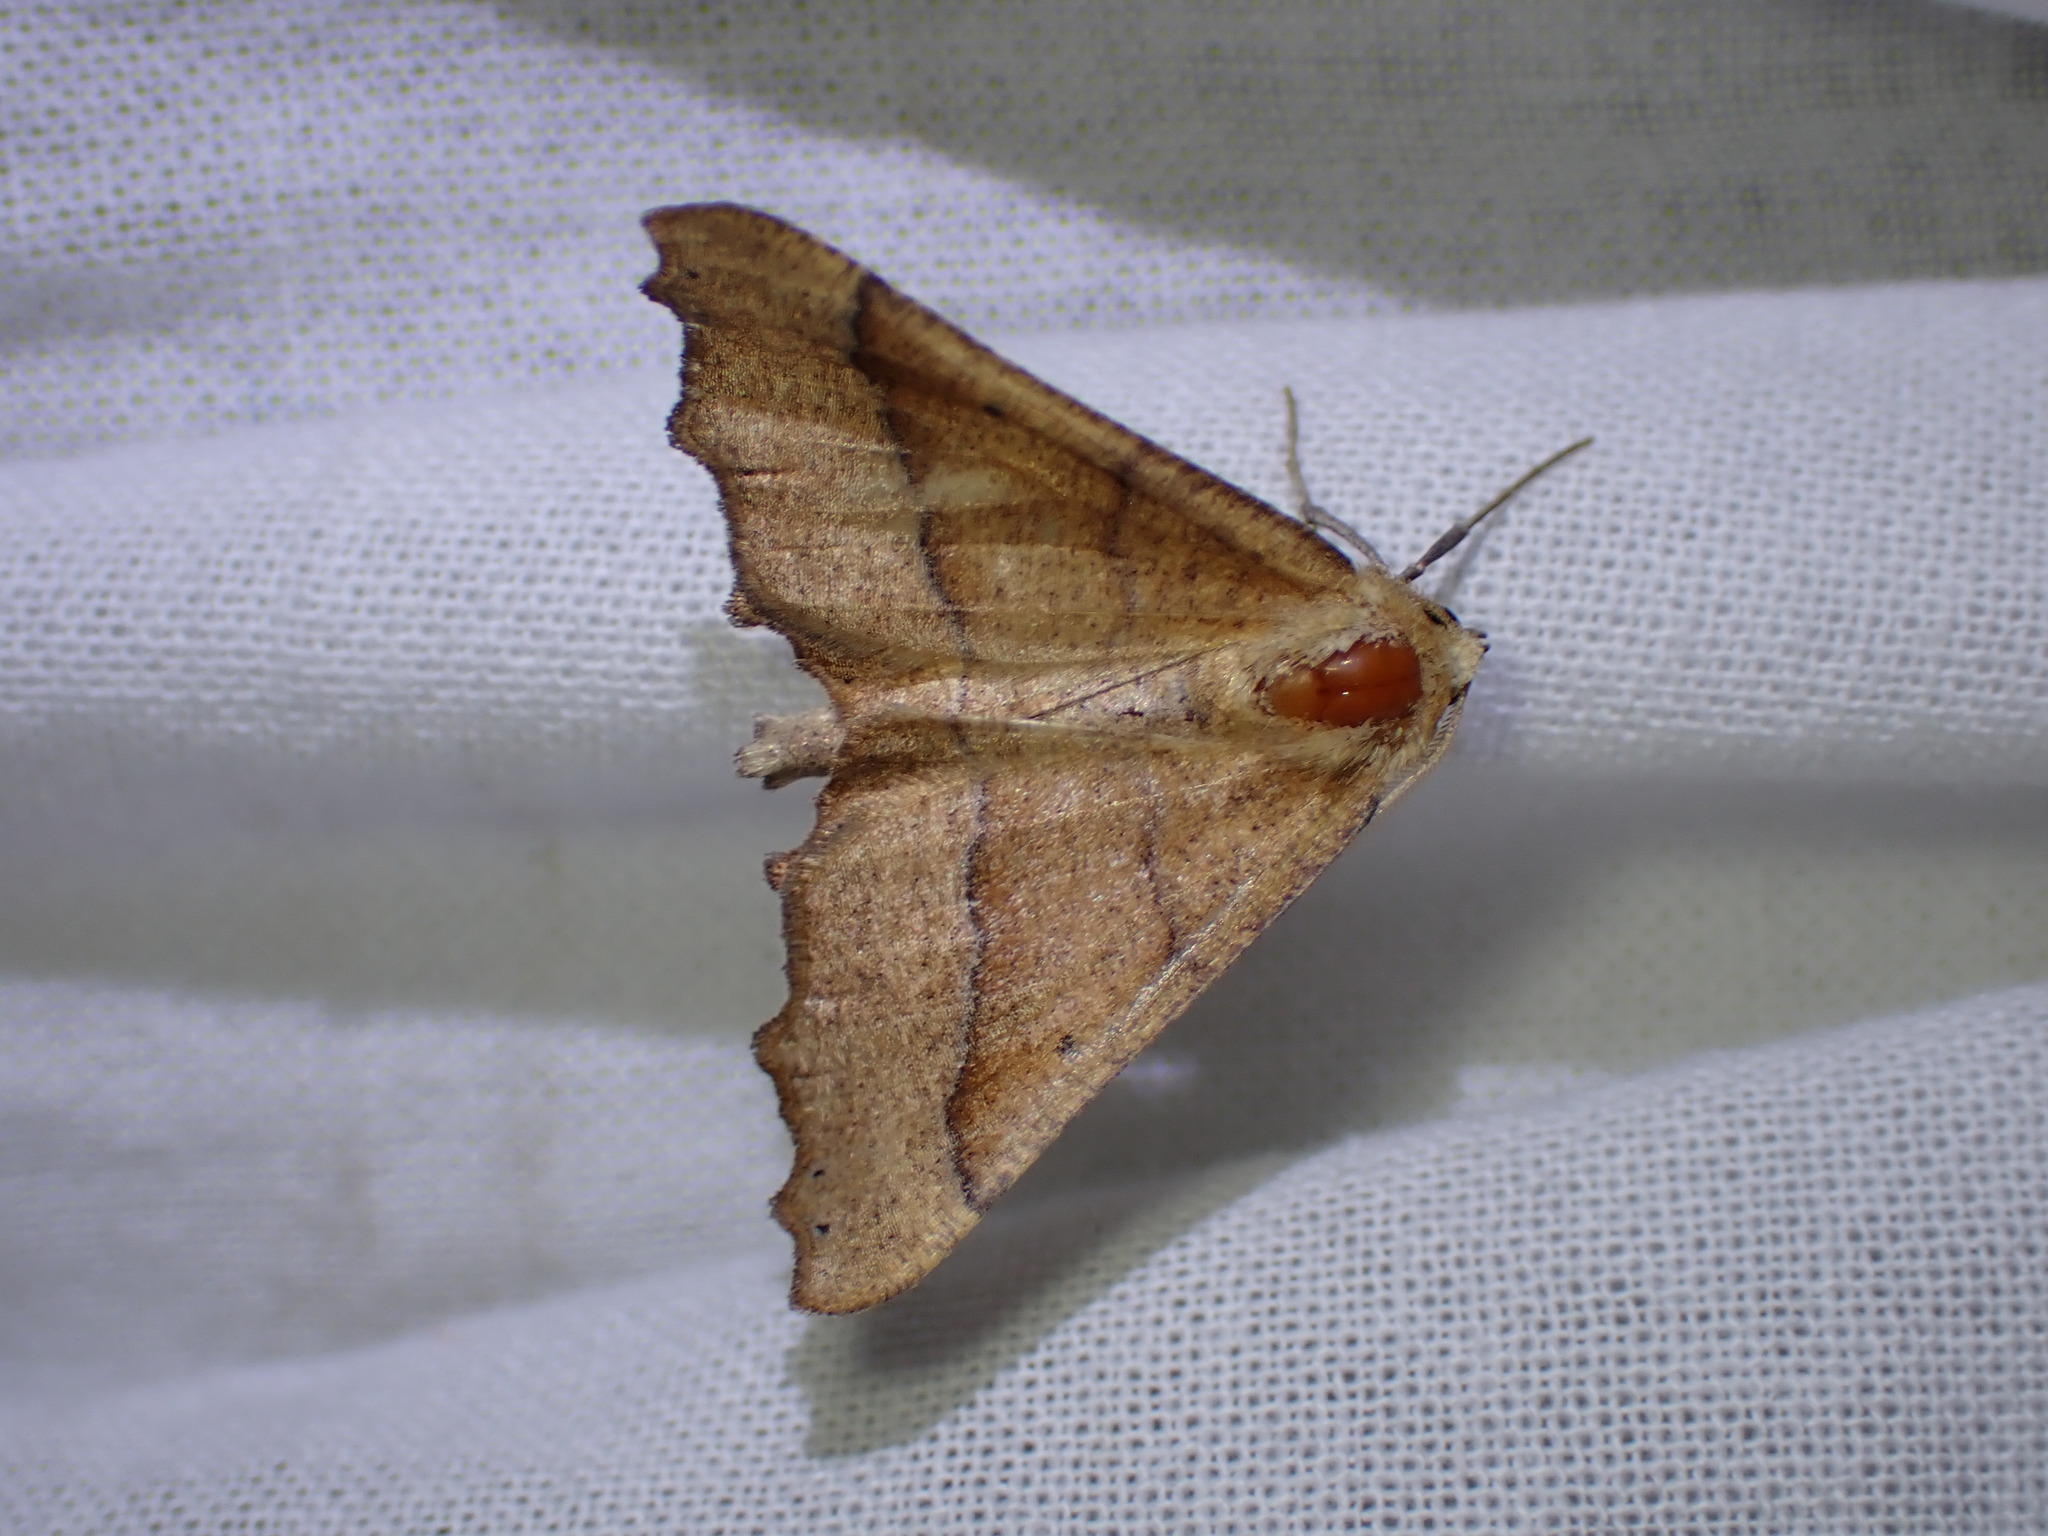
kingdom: Animalia
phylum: Arthropoda
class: Insecta
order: Lepidoptera
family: Geometridae
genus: Pero
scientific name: Pero radiosaria
